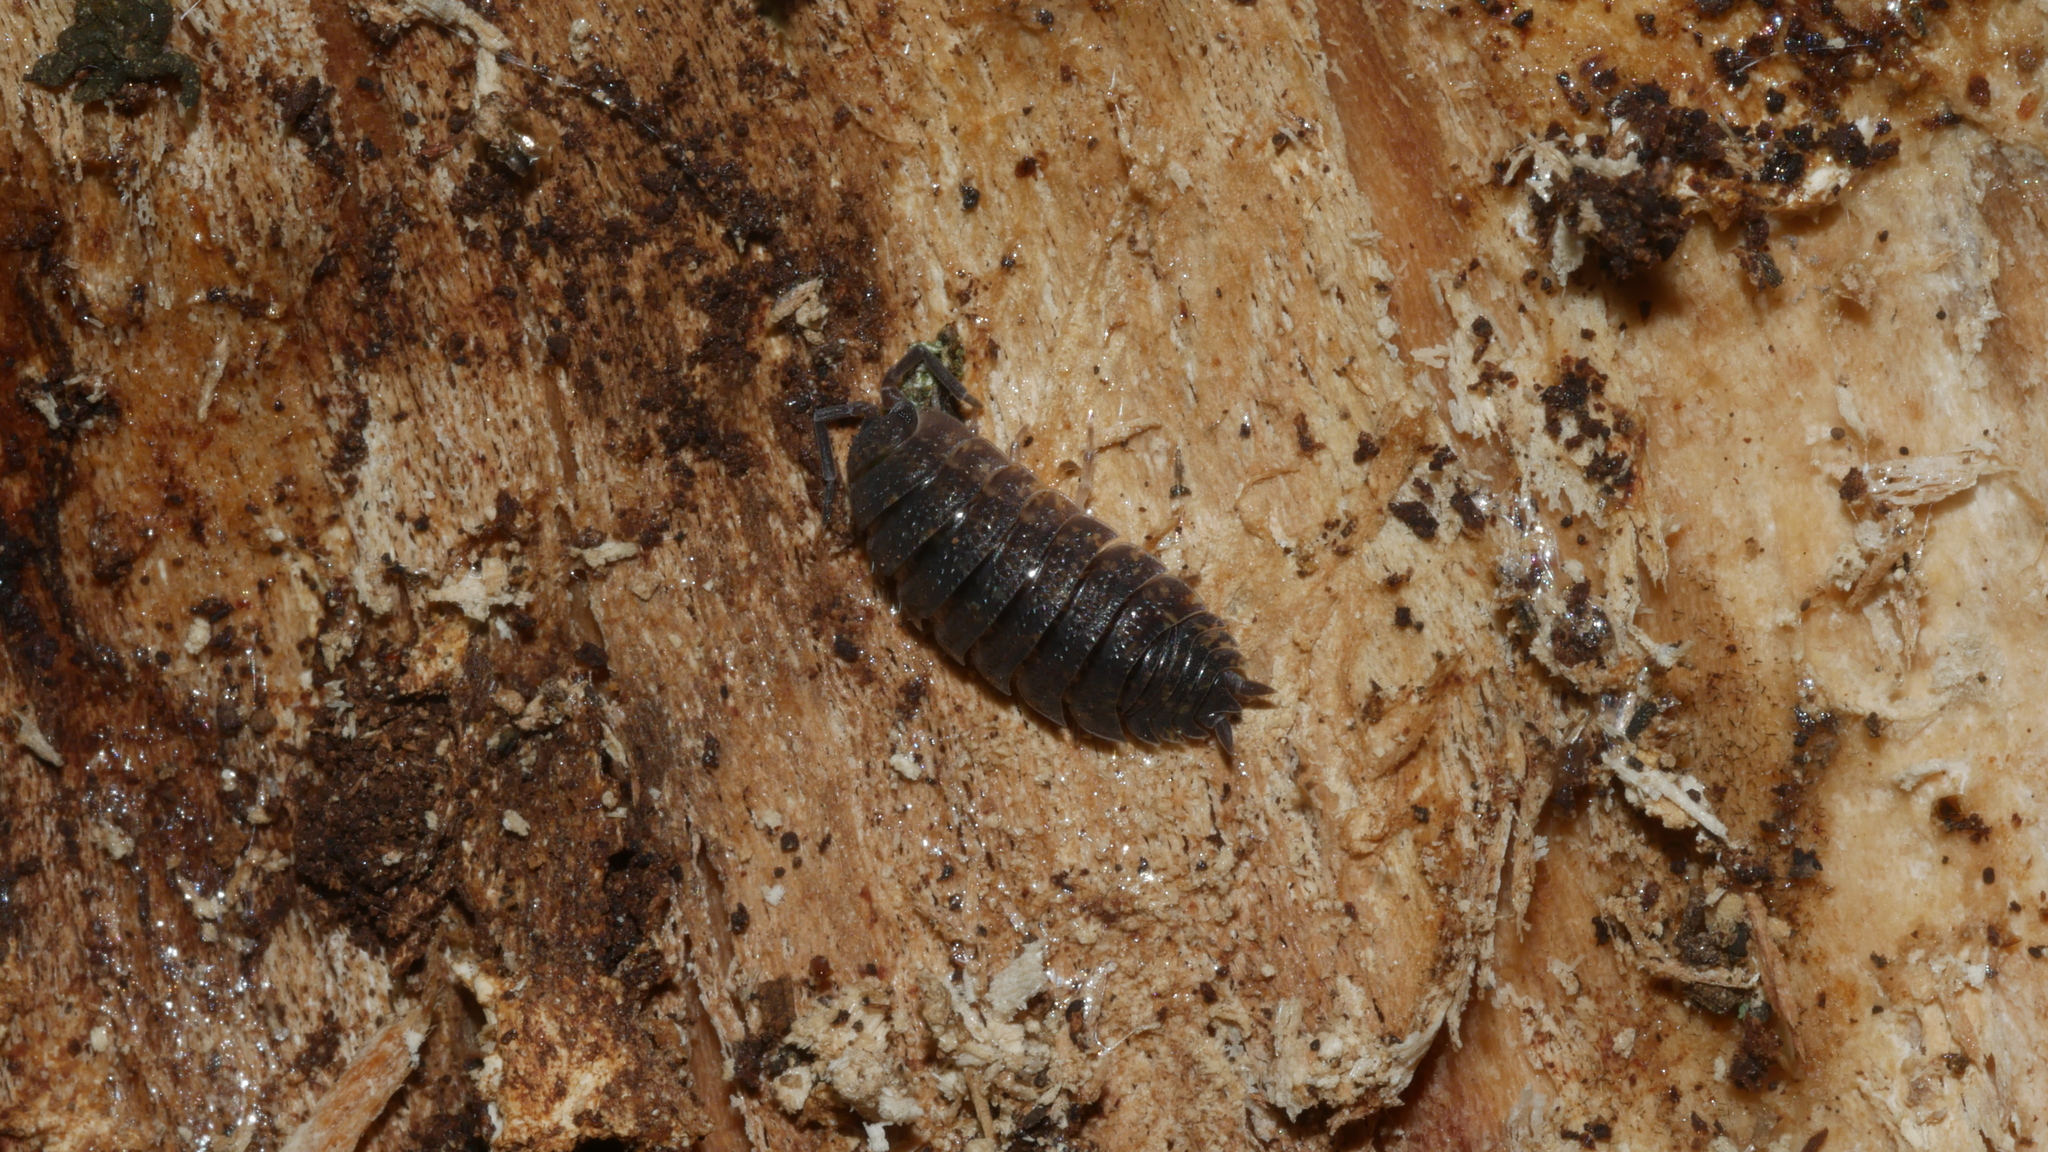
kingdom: Animalia
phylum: Arthropoda
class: Malacostraca
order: Isopoda
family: Porcellionidae
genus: Porcellio
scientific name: Porcellio scaber
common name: Common rough woodlouse
